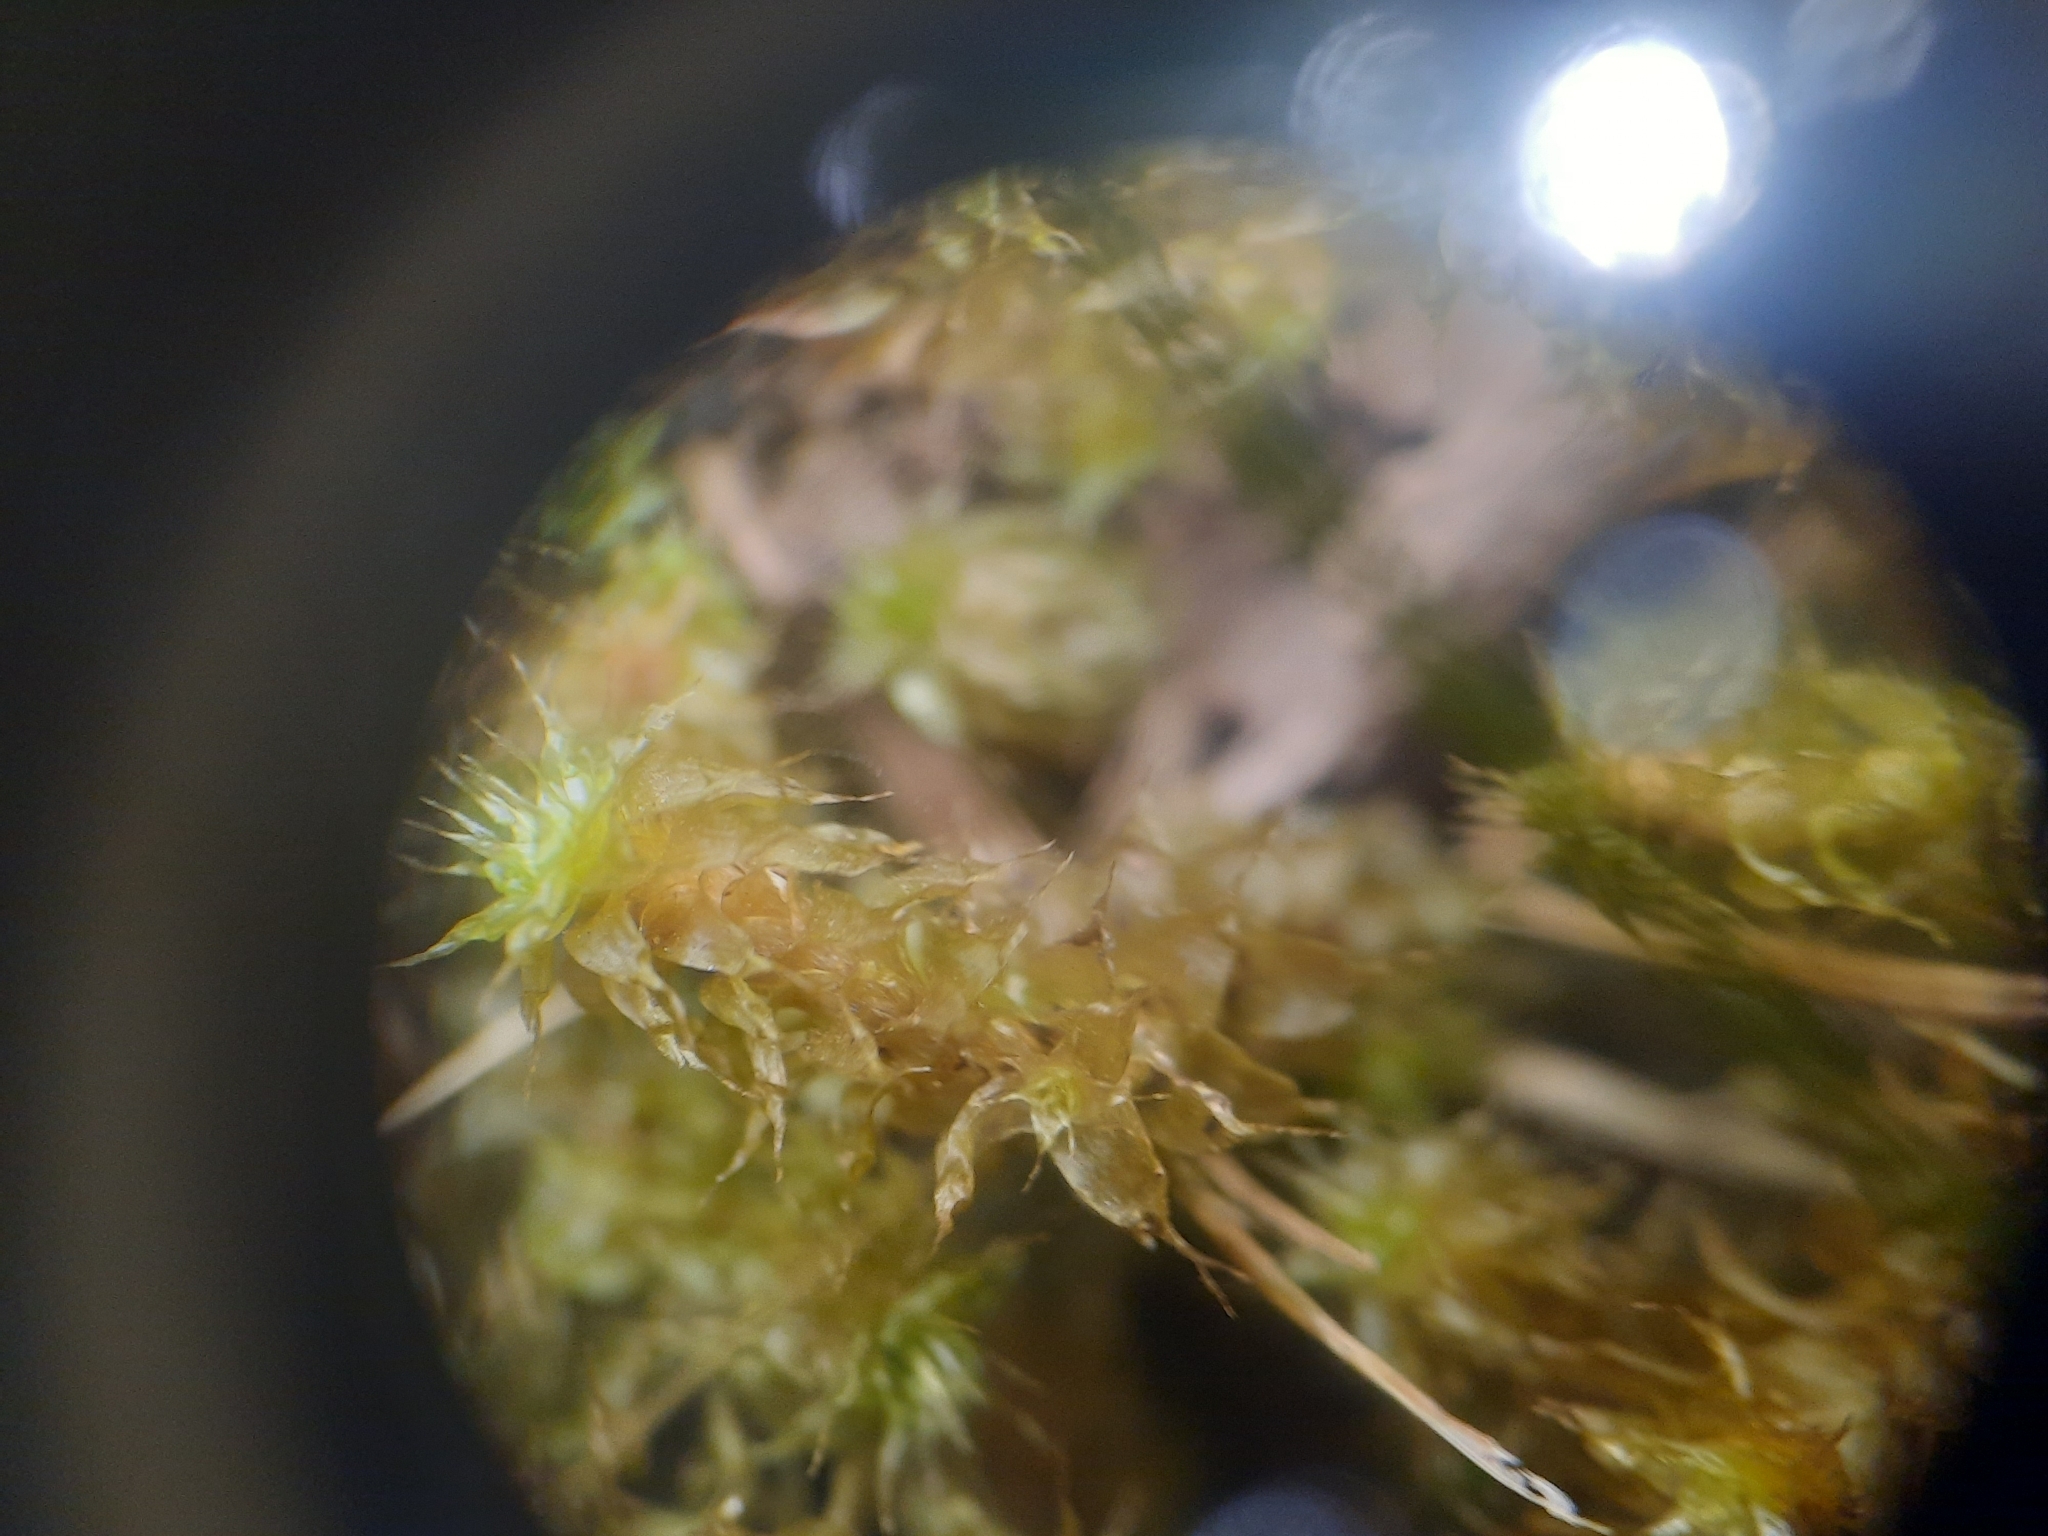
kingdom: Plantae
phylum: Bryophyta
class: Bryopsida
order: Ptychomniales
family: Ptychomniaceae
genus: Ptychomnion
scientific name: Ptychomnion densifolium
